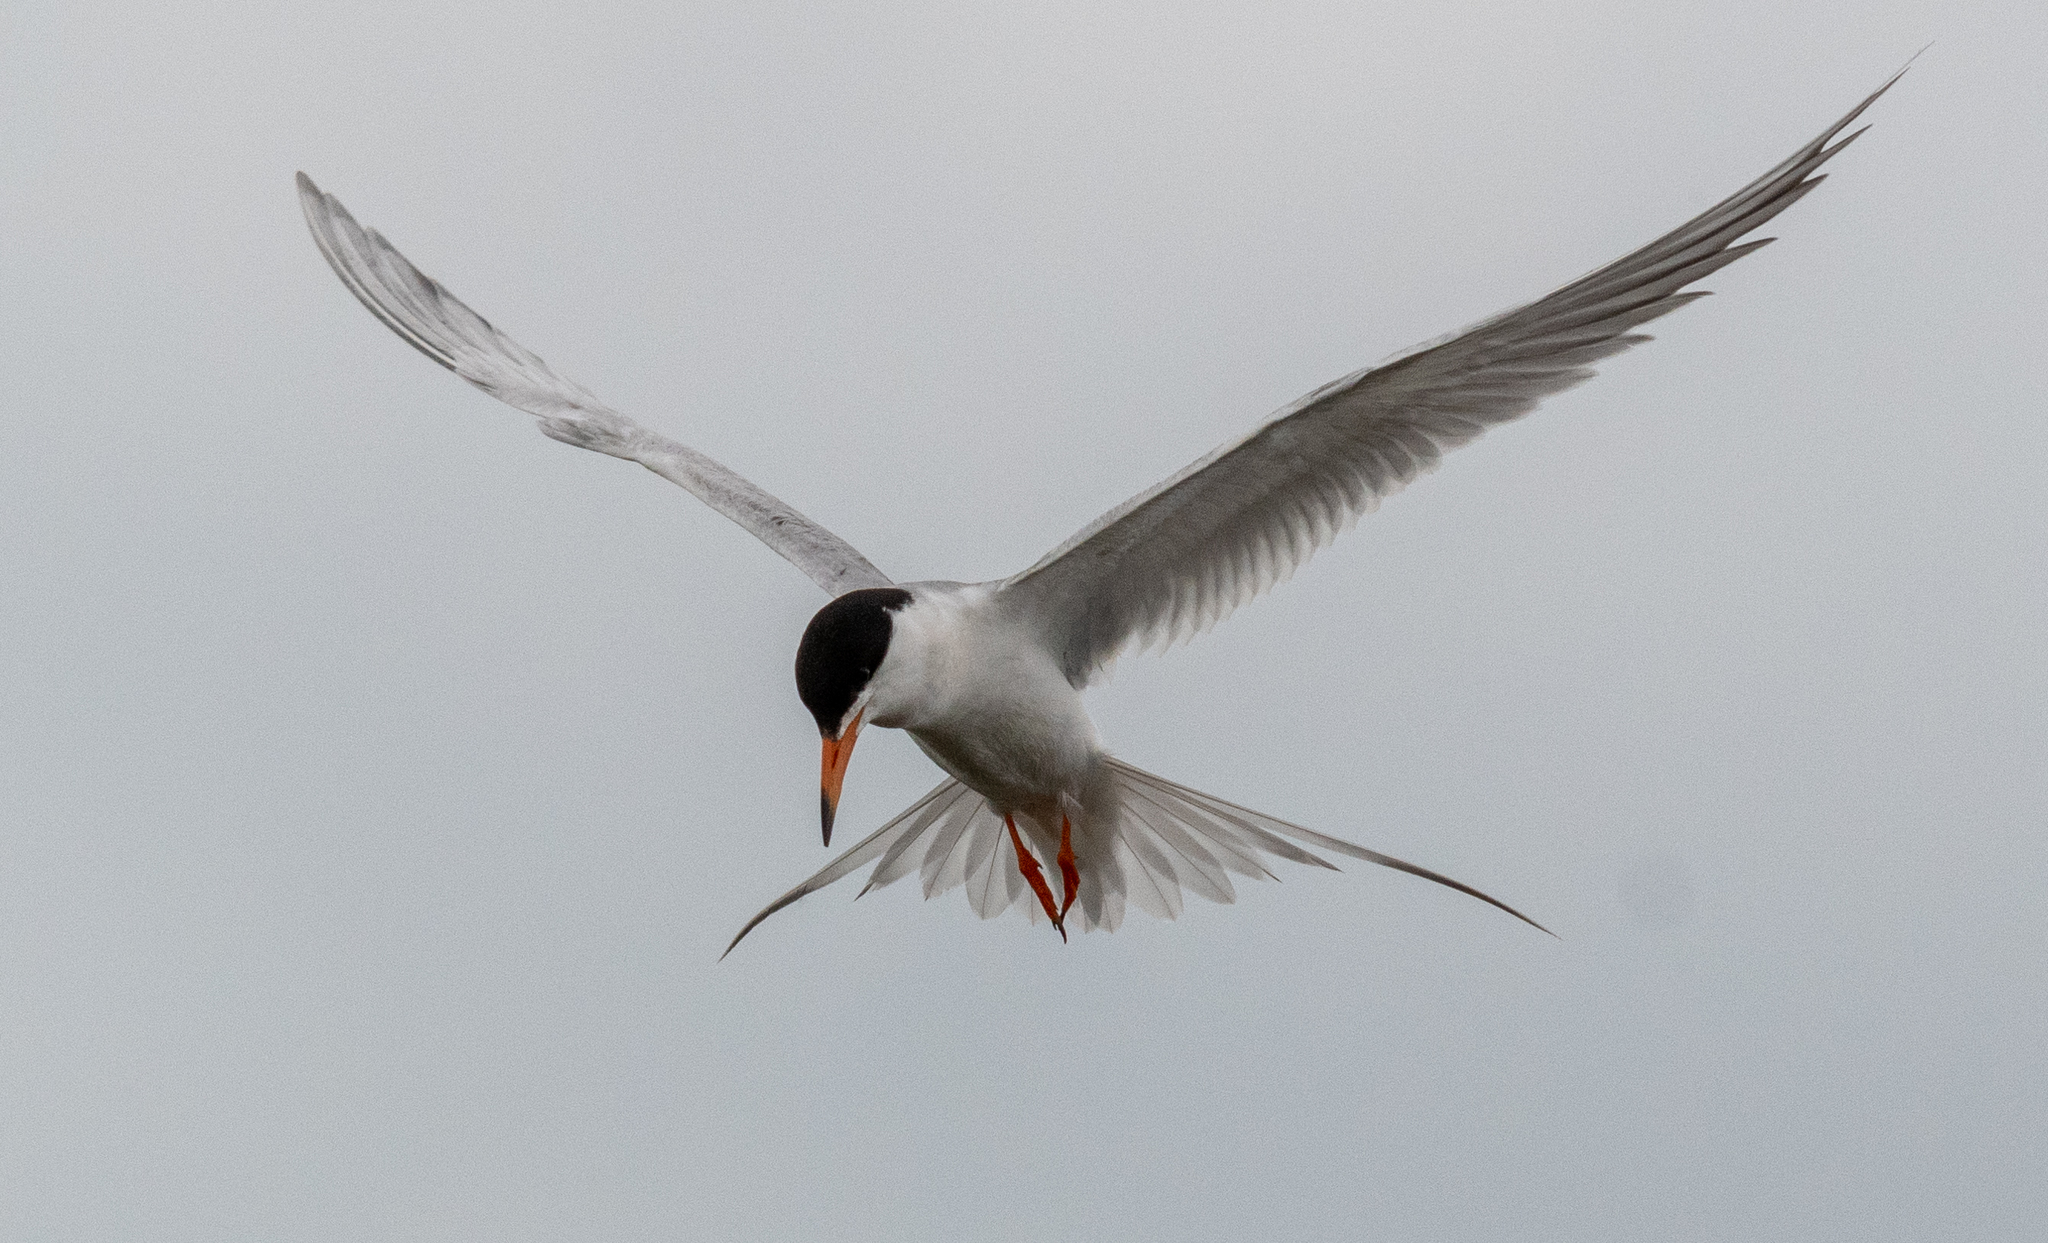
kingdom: Animalia
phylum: Chordata
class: Aves
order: Charadriiformes
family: Laridae
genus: Sterna
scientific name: Sterna forsteri
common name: Forster's tern
